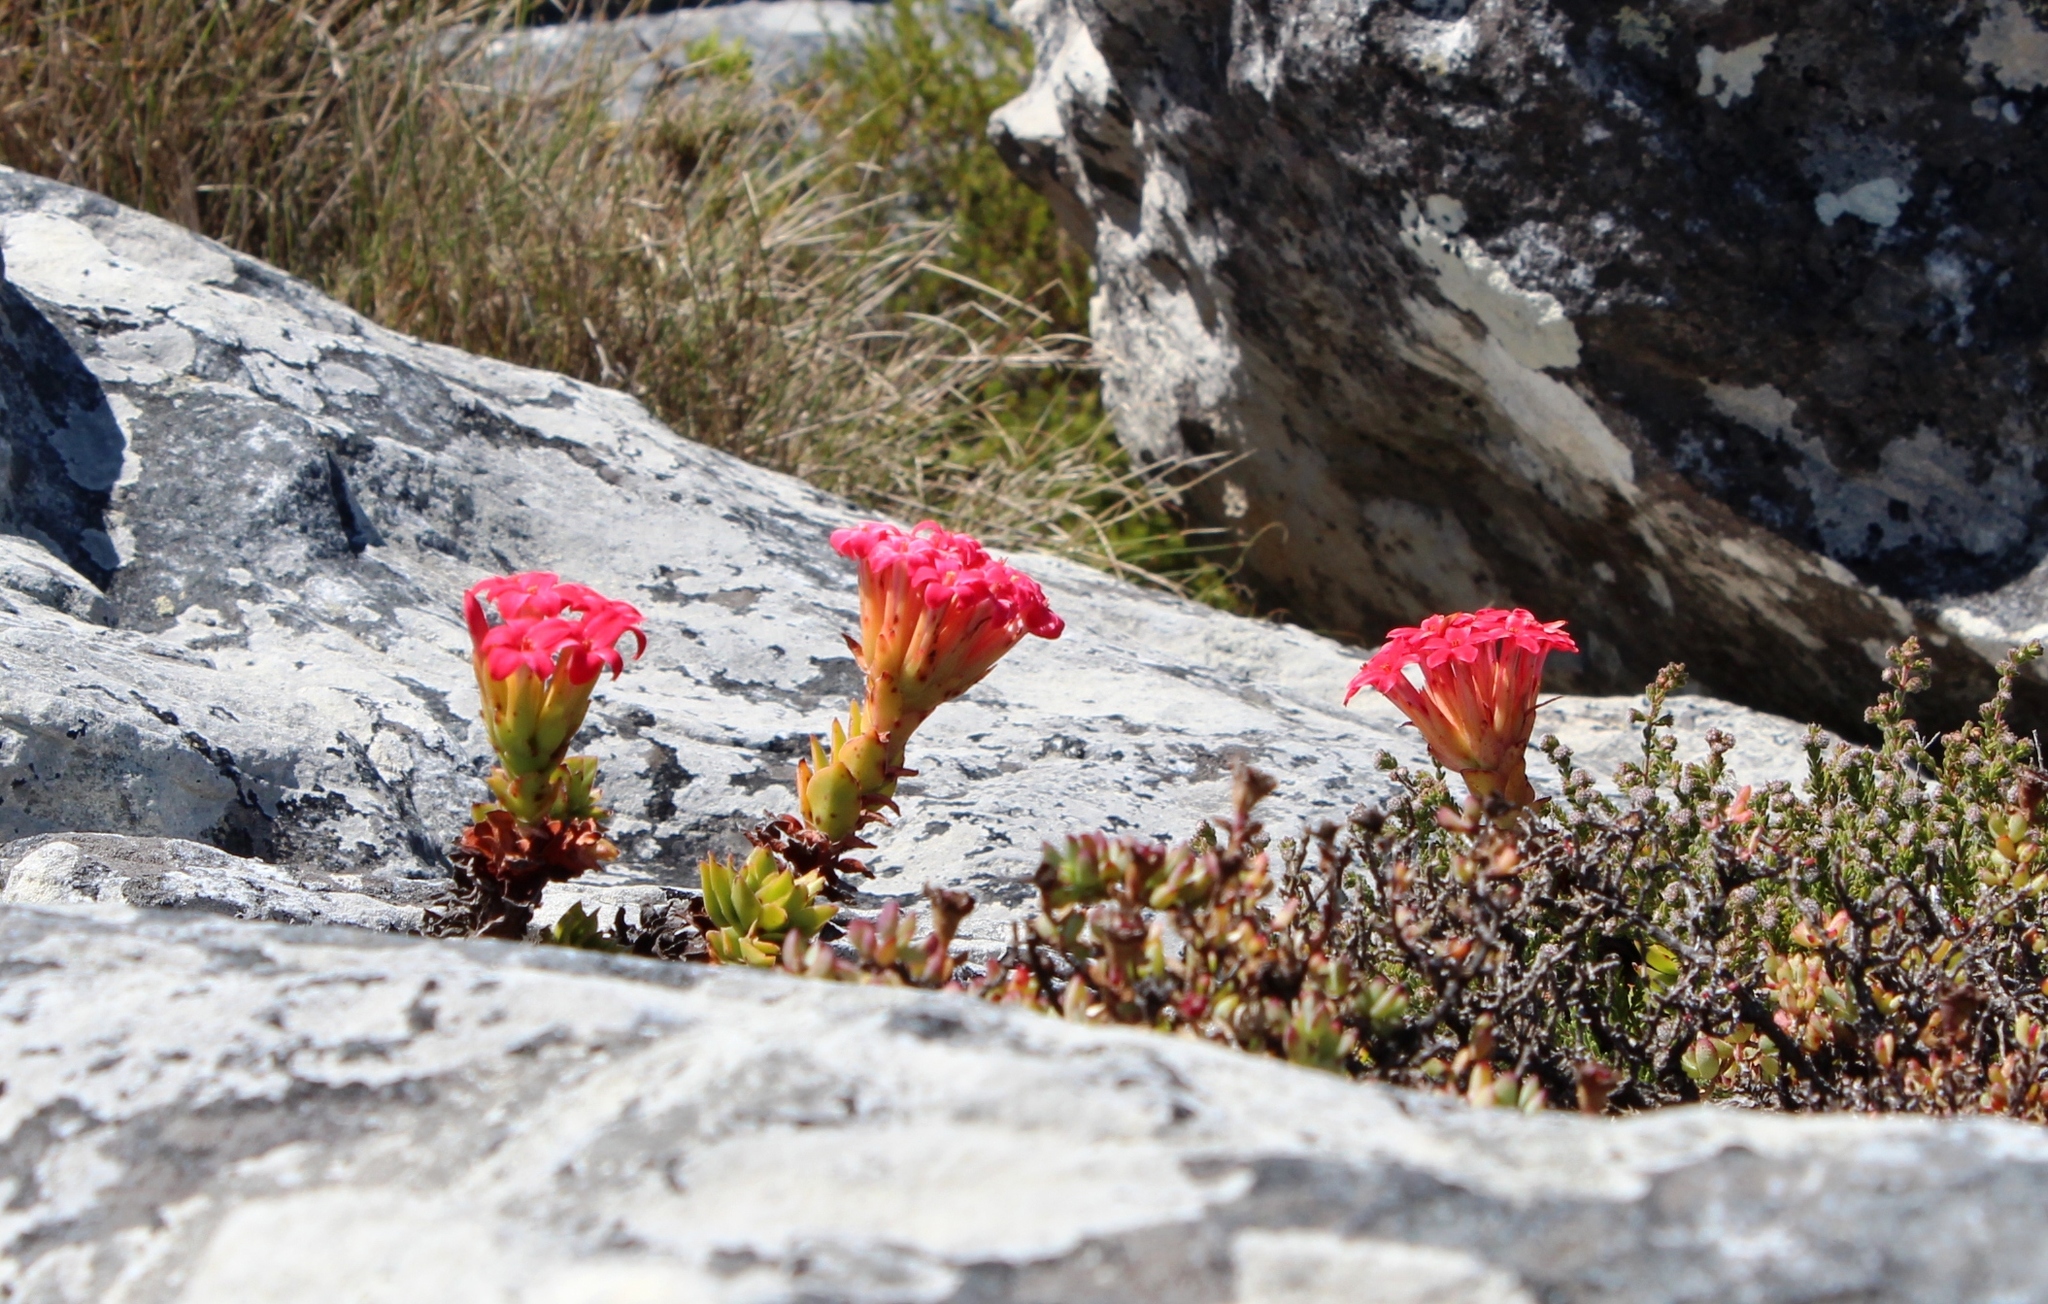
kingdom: Plantae
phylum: Tracheophyta
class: Magnoliopsida
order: Saxifragales
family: Crassulaceae
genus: Crassula
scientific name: Crassula coccinea
